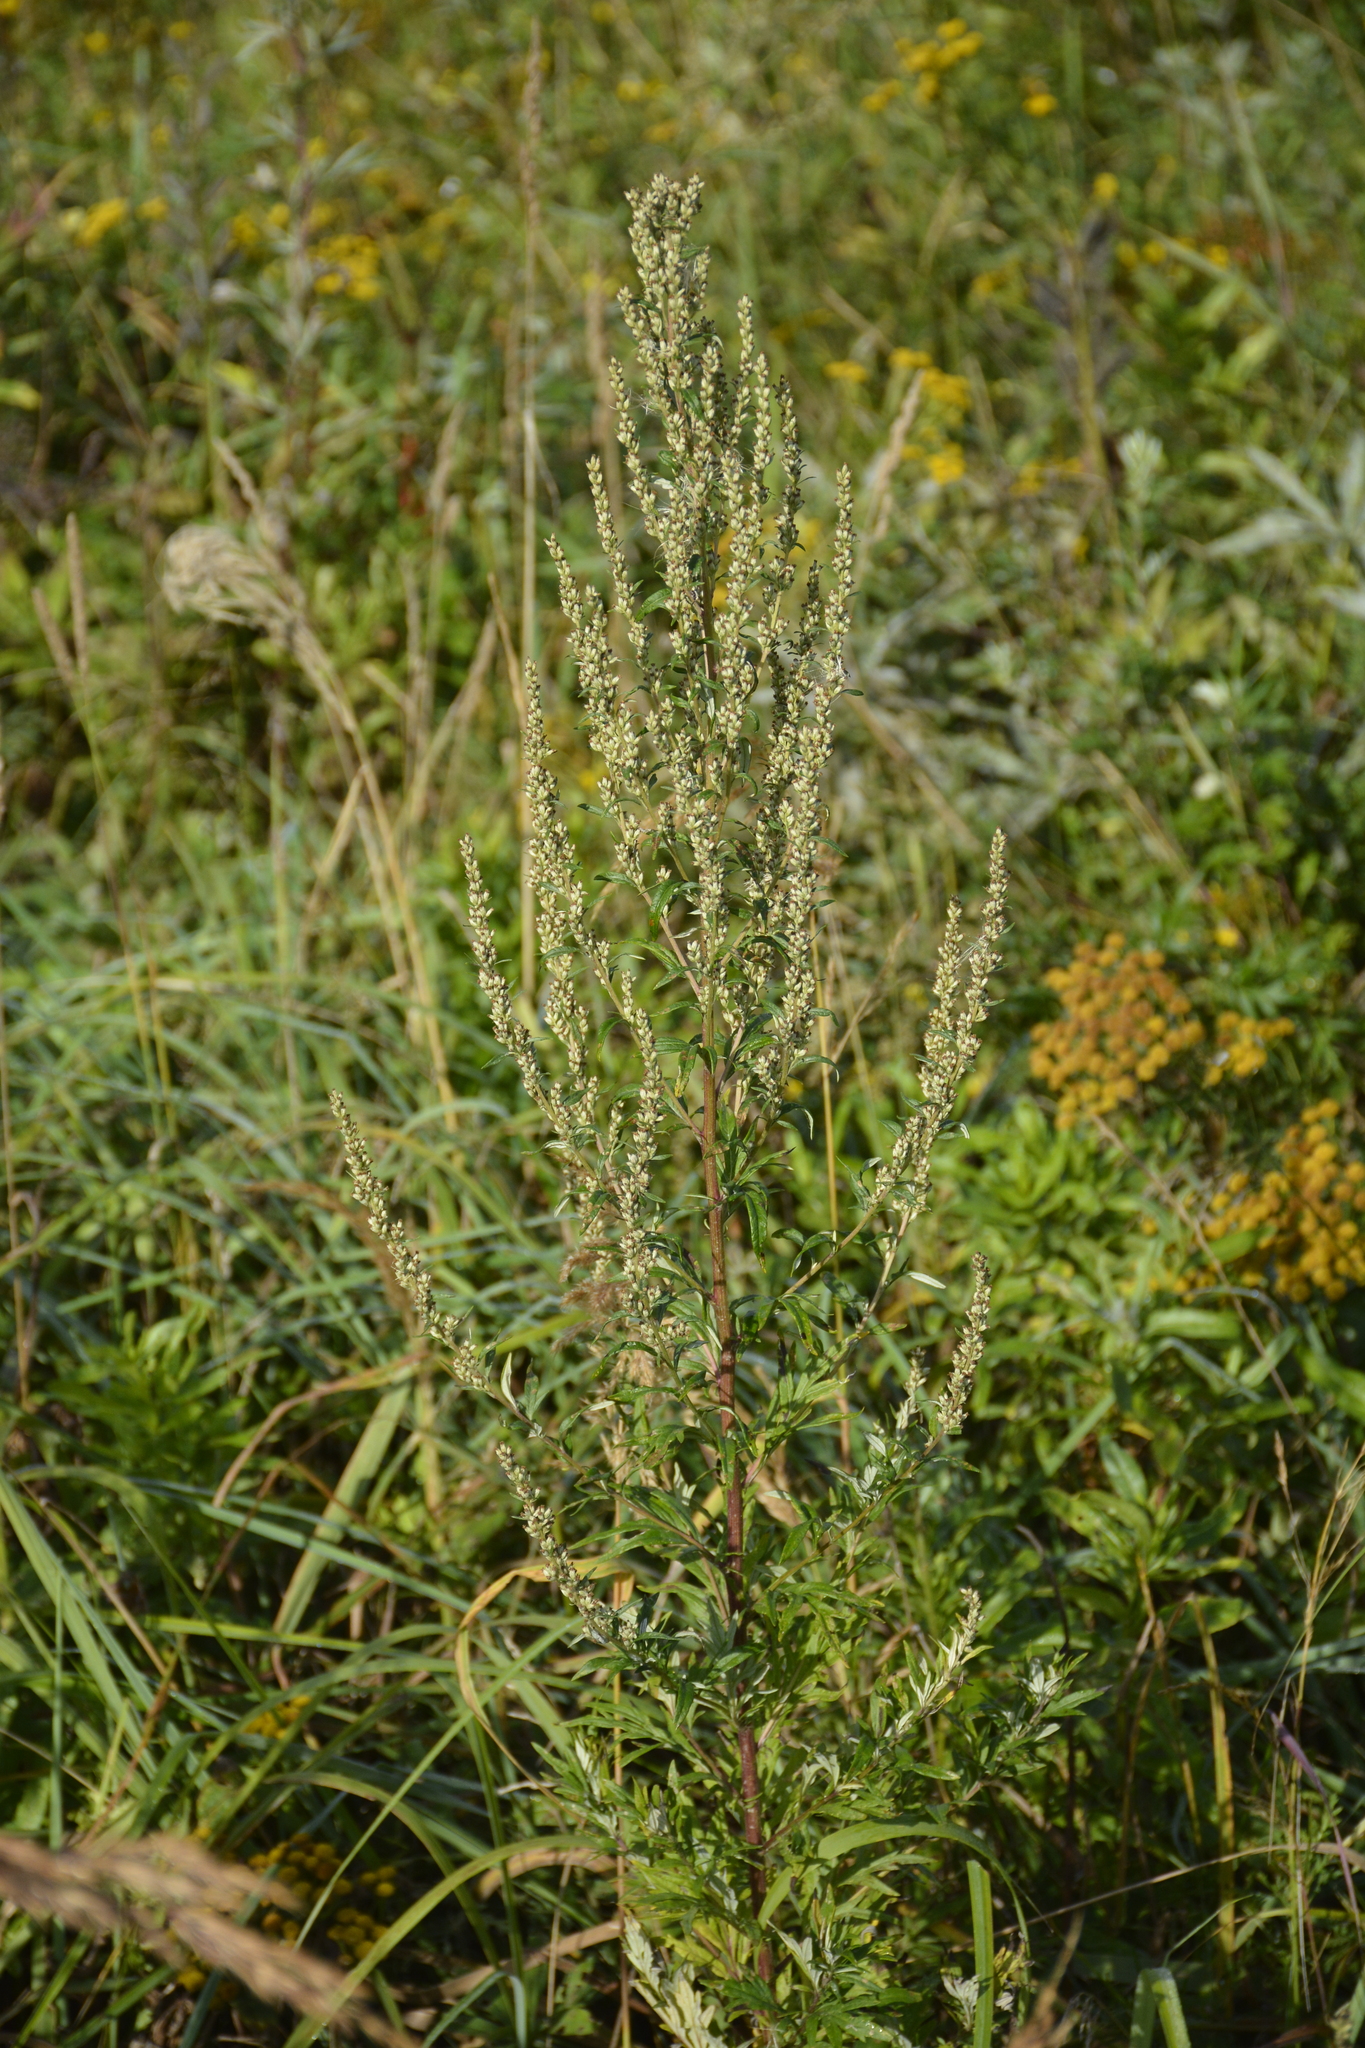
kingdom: Plantae
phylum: Tracheophyta
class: Magnoliopsida
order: Asterales
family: Asteraceae
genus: Artemisia
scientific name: Artemisia vulgaris
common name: Mugwort
